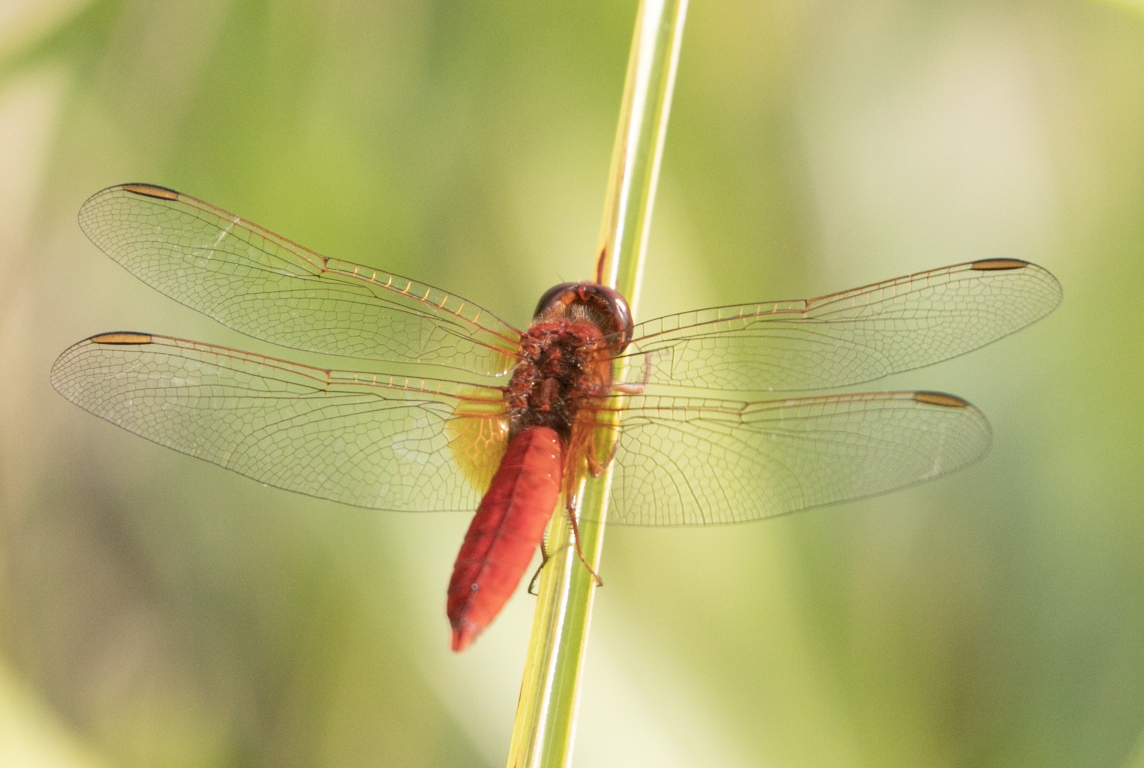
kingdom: Animalia
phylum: Arthropoda
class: Insecta
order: Odonata
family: Libellulidae
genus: Crocothemis
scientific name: Crocothemis erythraea
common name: Scarlet dragonfly
